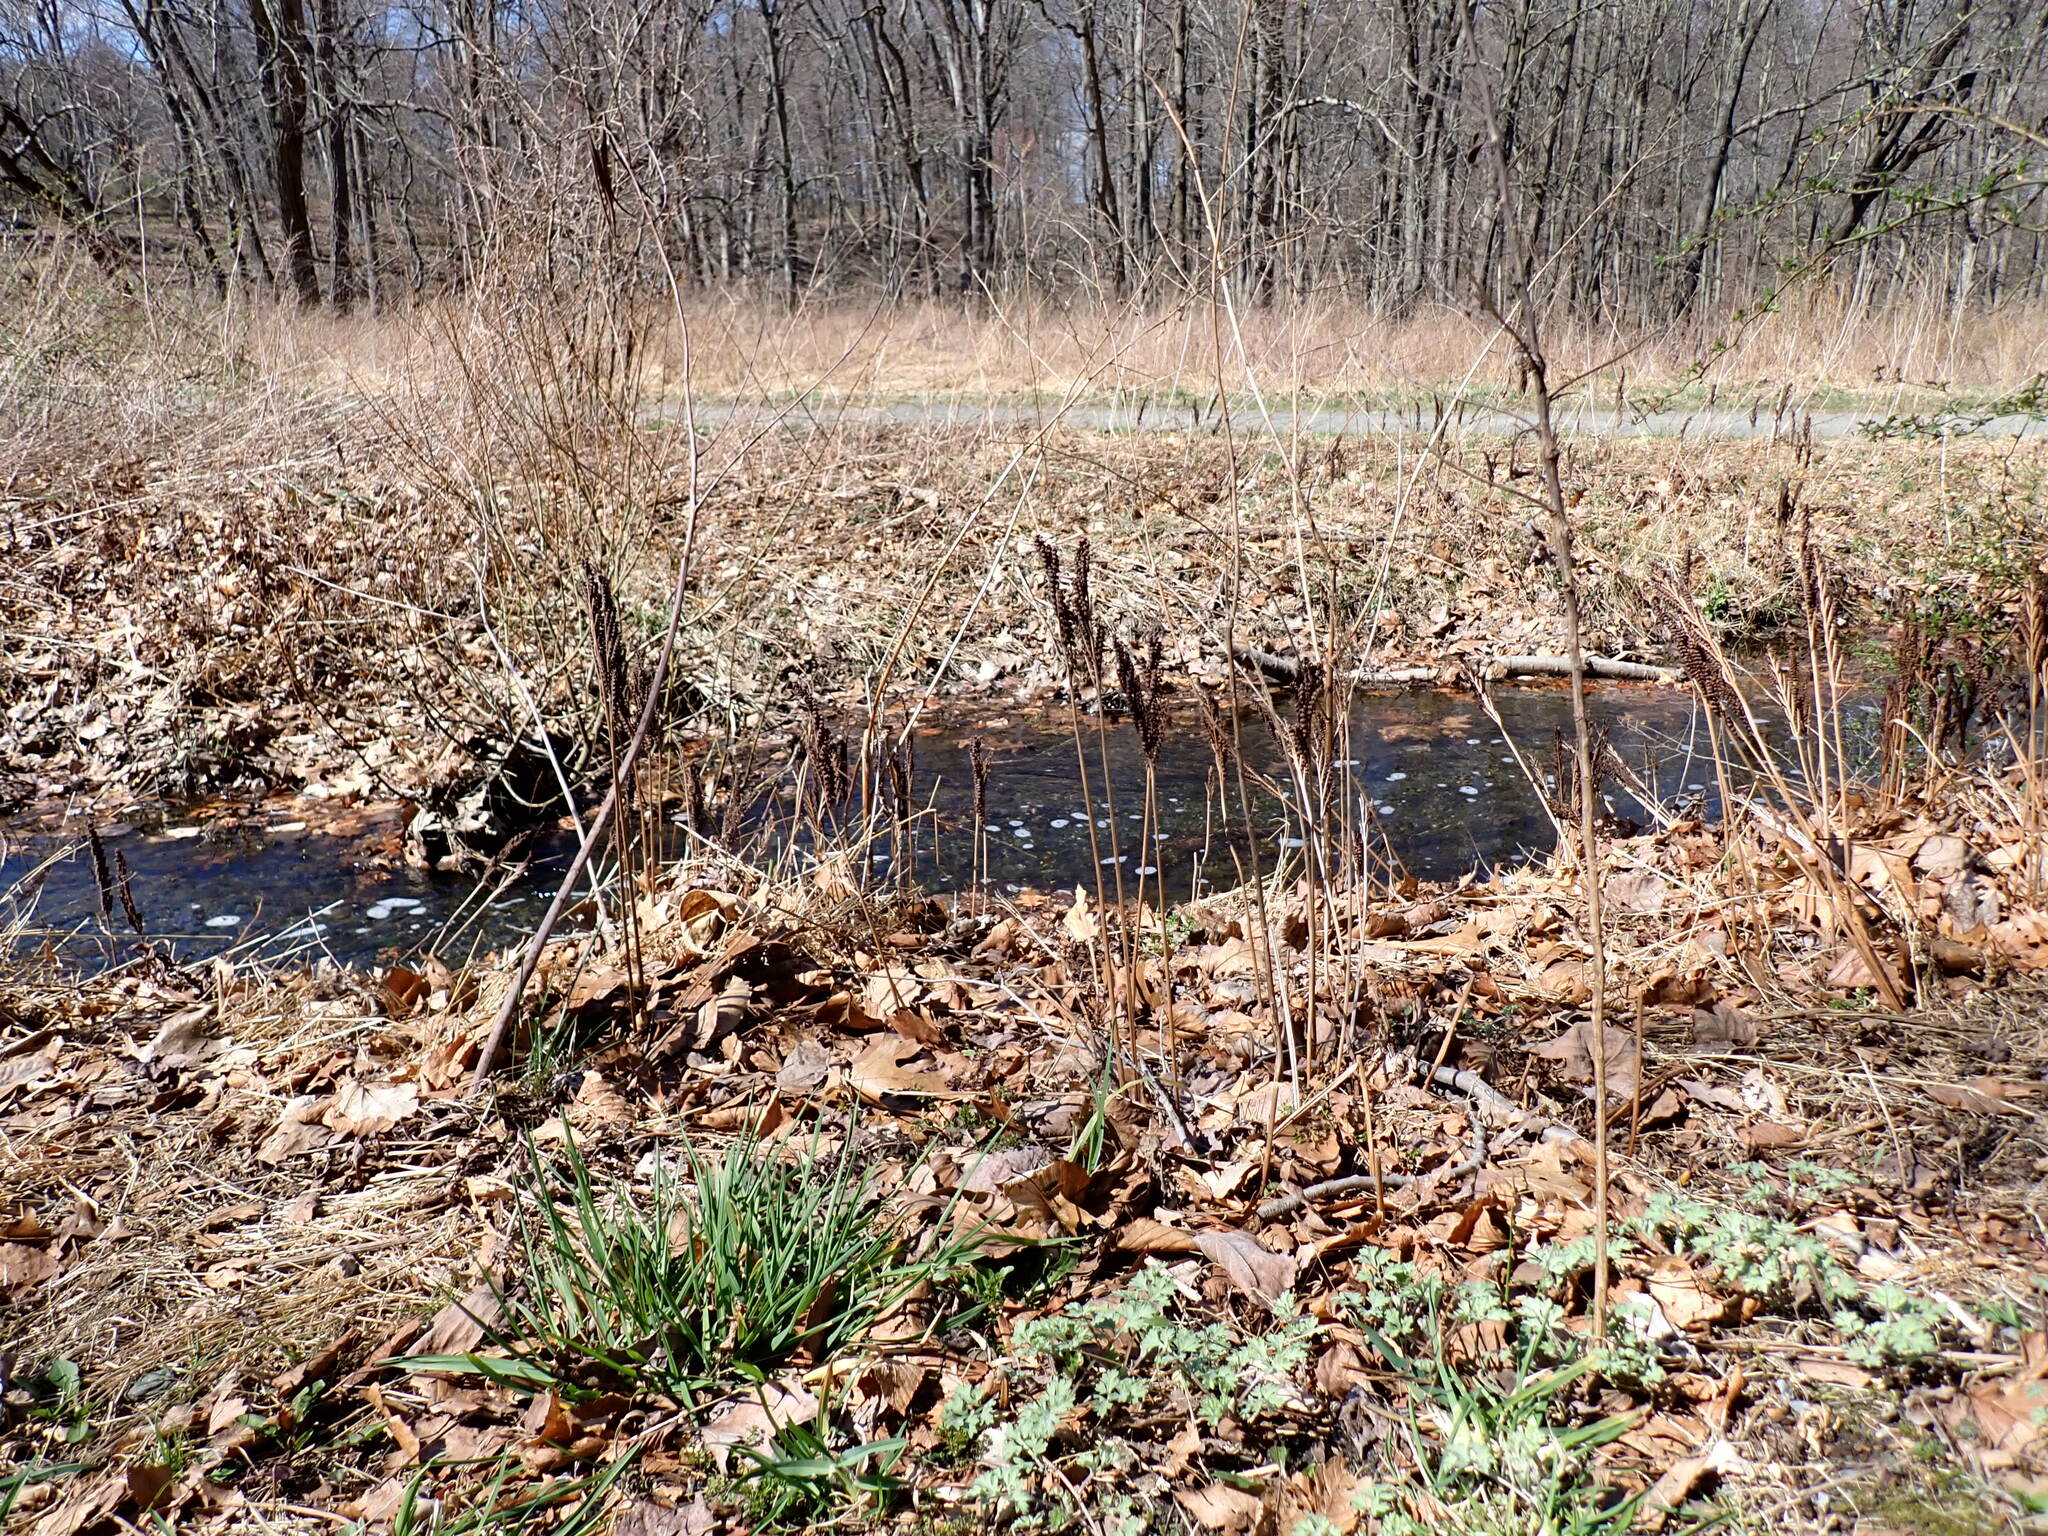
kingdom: Plantae
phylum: Tracheophyta
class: Polypodiopsida
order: Polypodiales
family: Onocleaceae
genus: Onoclea
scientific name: Onoclea sensibilis
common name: Sensitive fern
